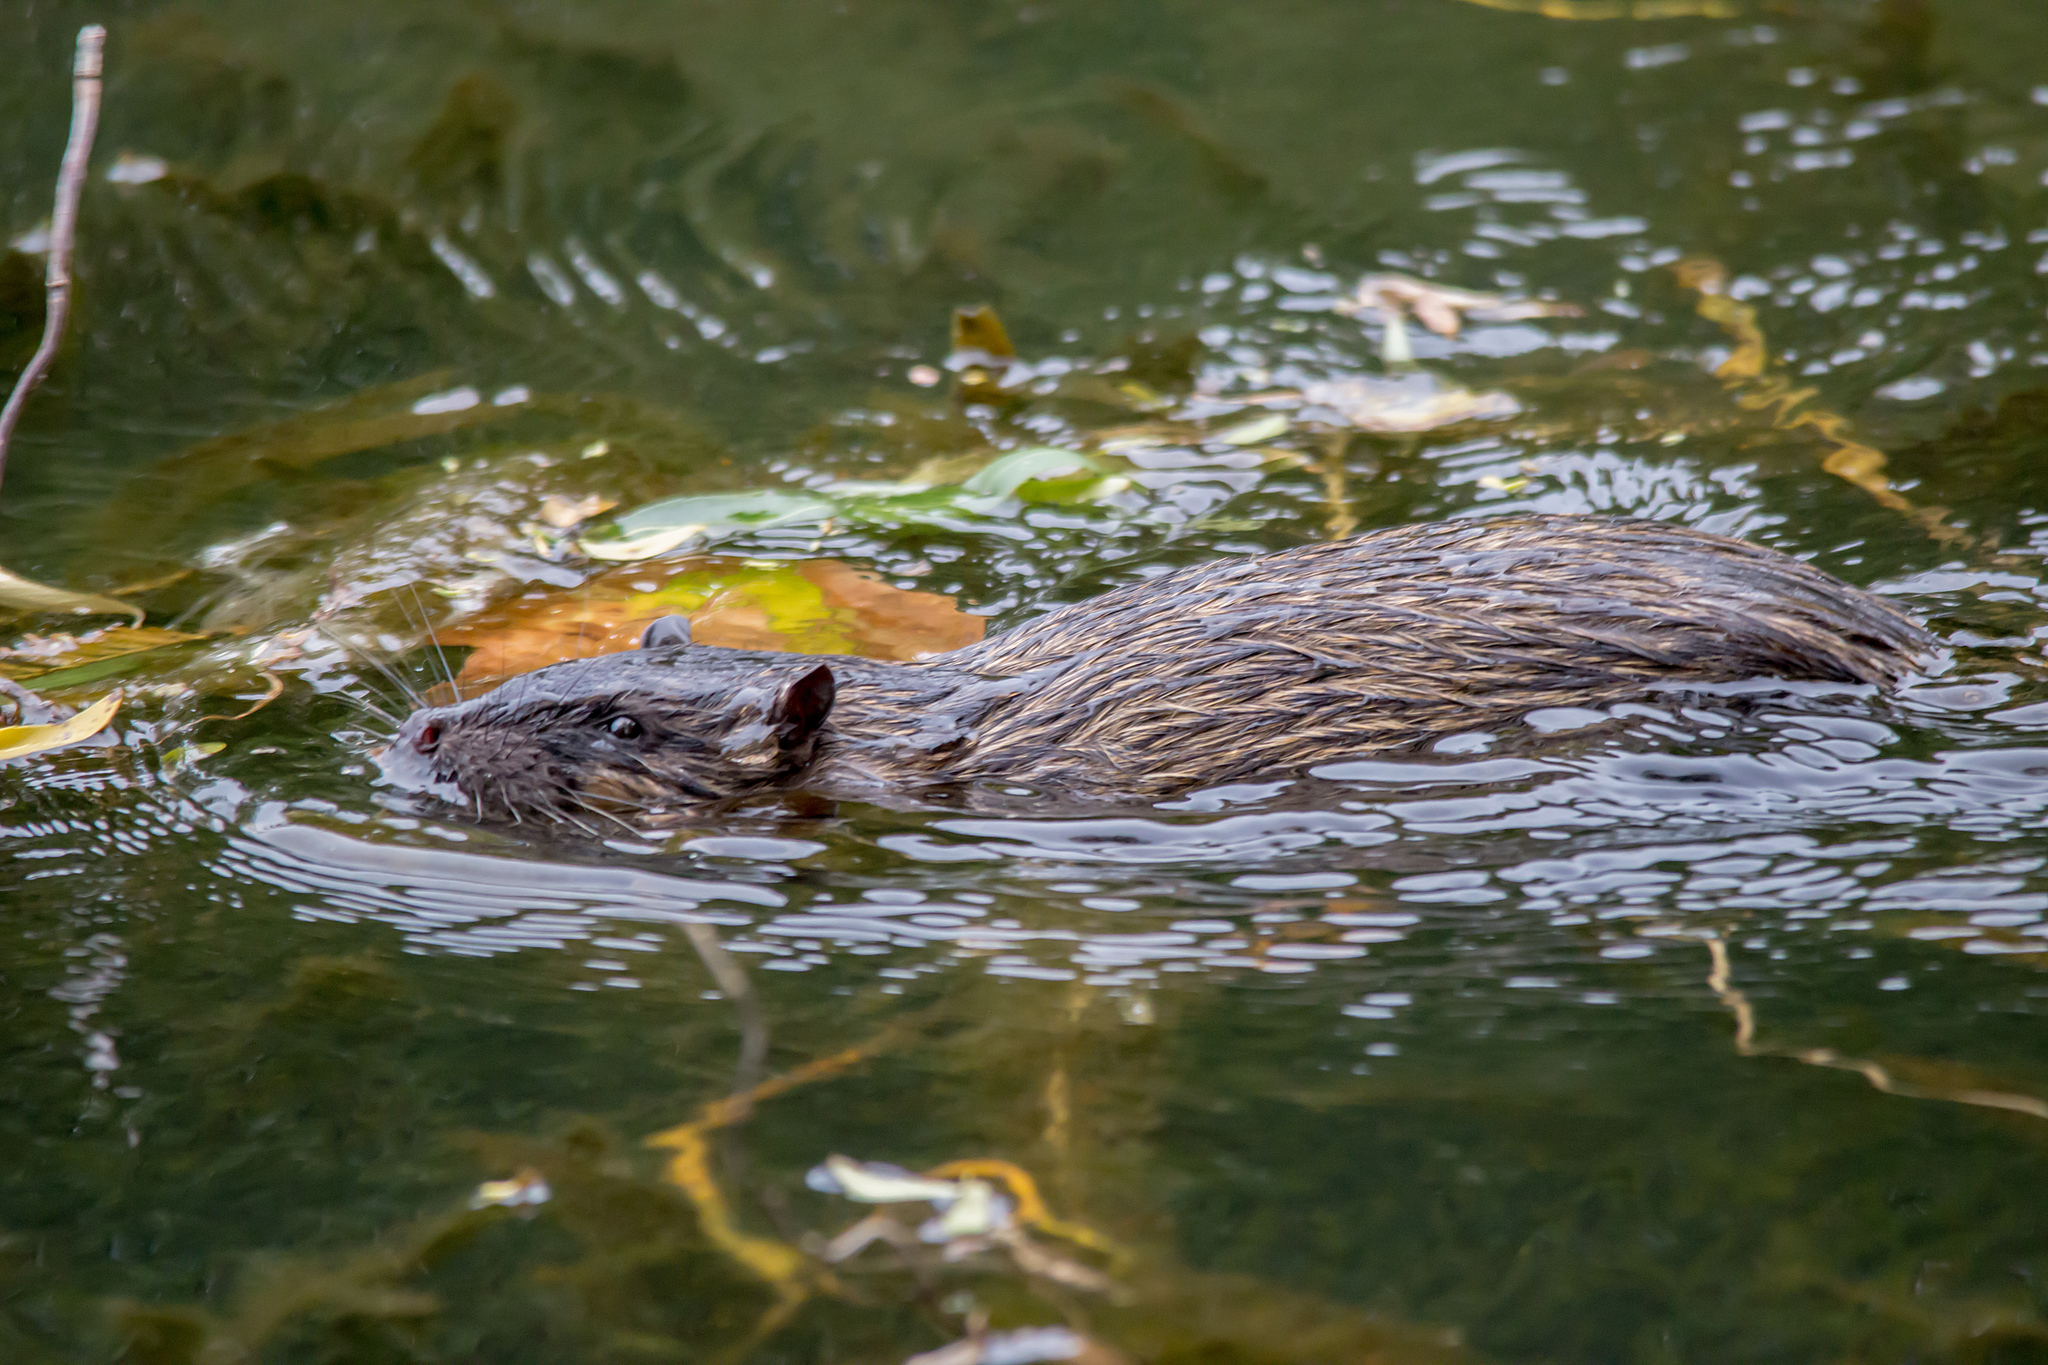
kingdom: Animalia
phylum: Chordata
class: Mammalia
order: Rodentia
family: Muridae
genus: Hydromys
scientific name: Hydromys chrysogaster
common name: Common water rat
